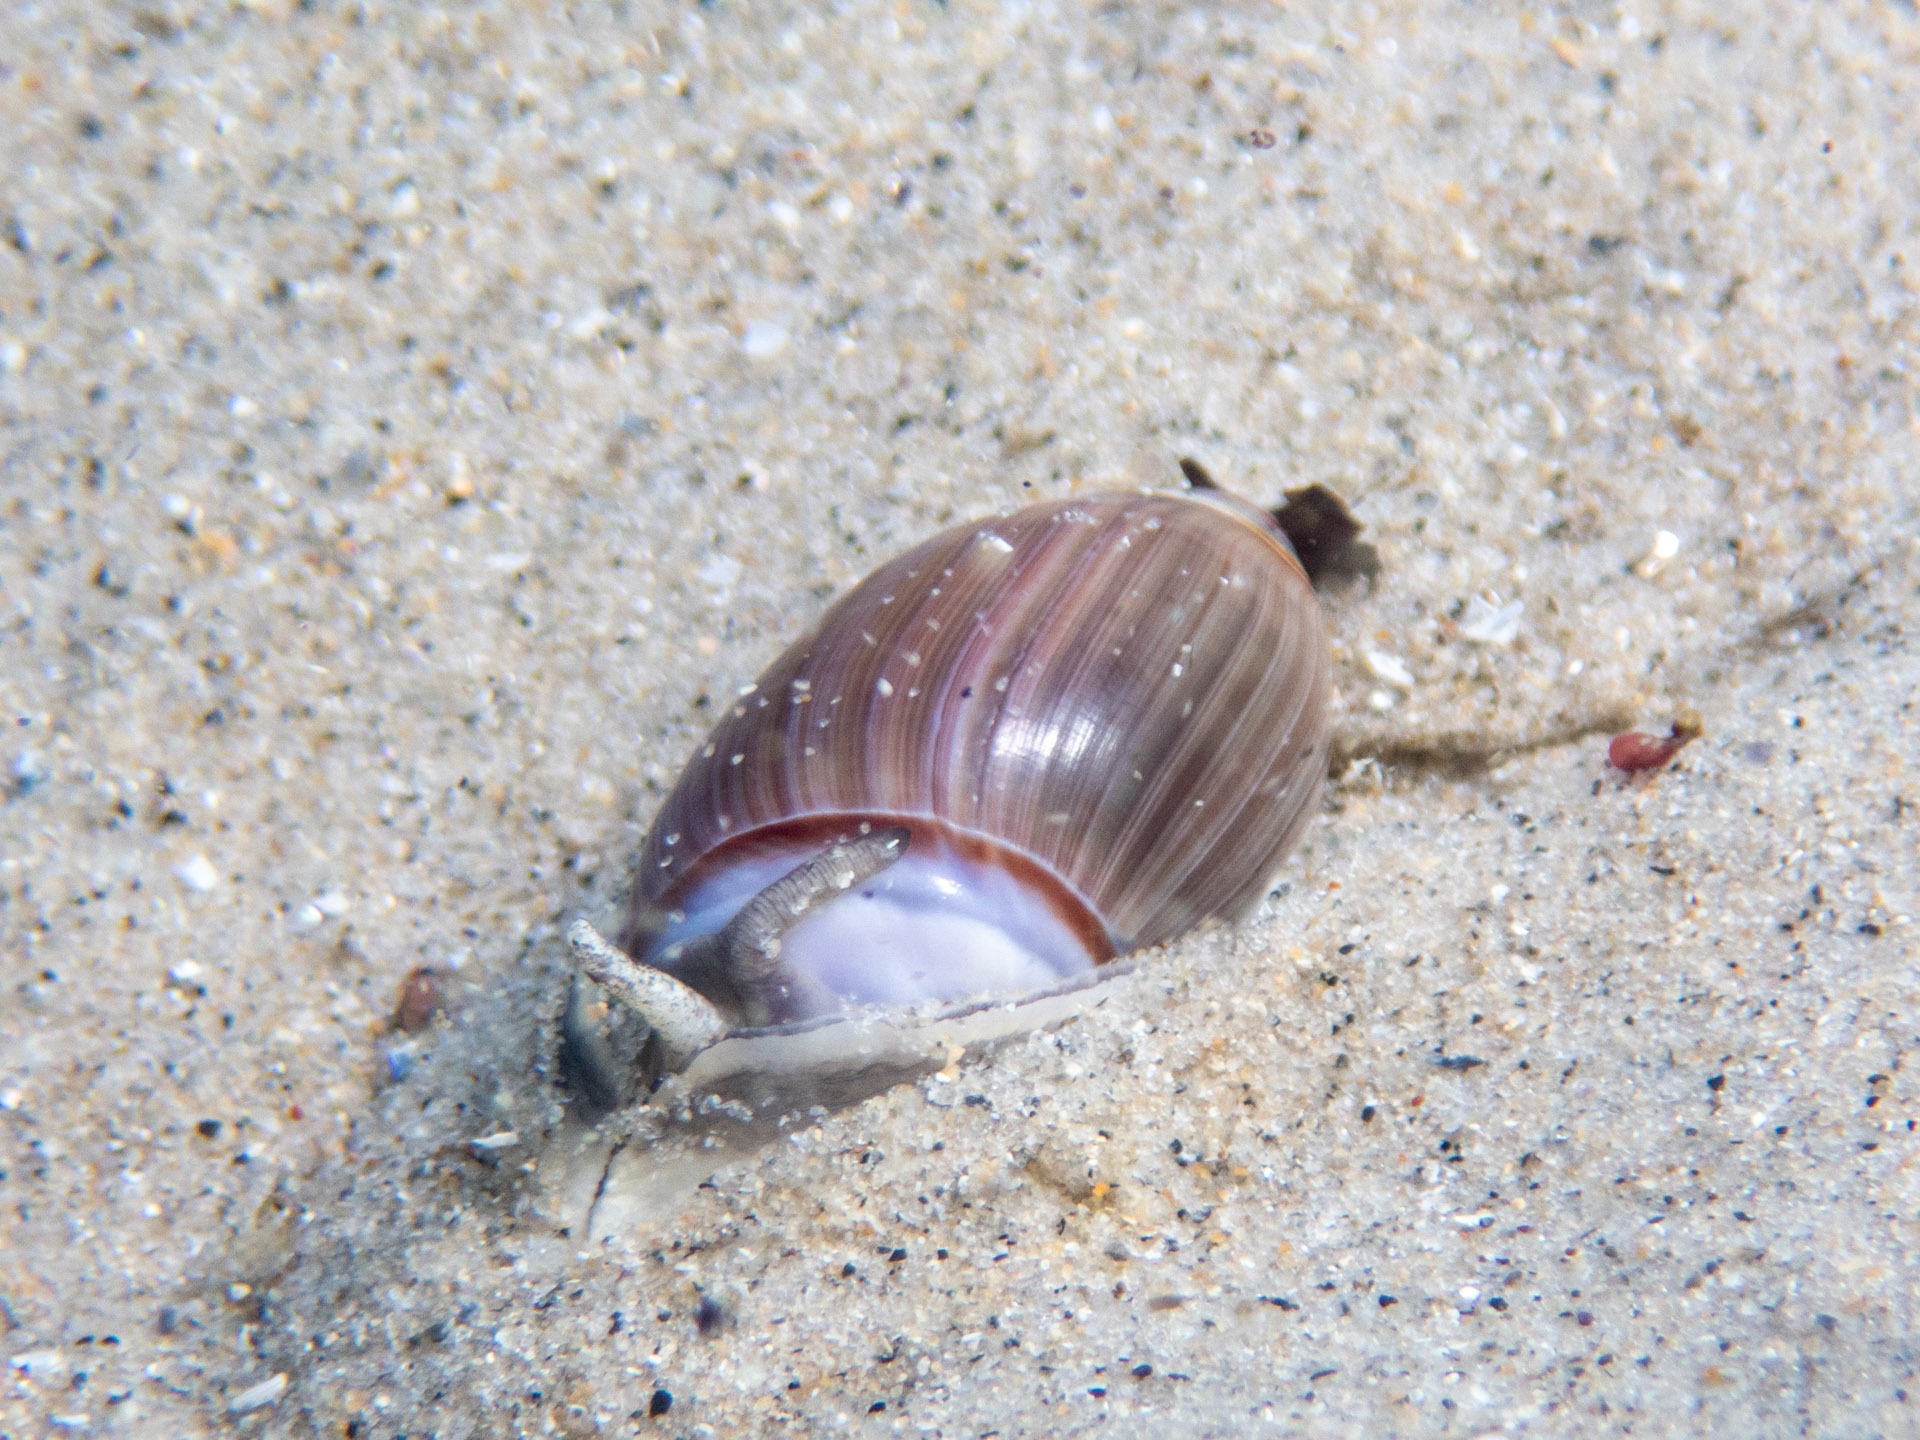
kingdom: Animalia
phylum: Mollusca
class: Gastropoda
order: Neogastropoda
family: Olividae
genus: Callianax
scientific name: Callianax biplicata
